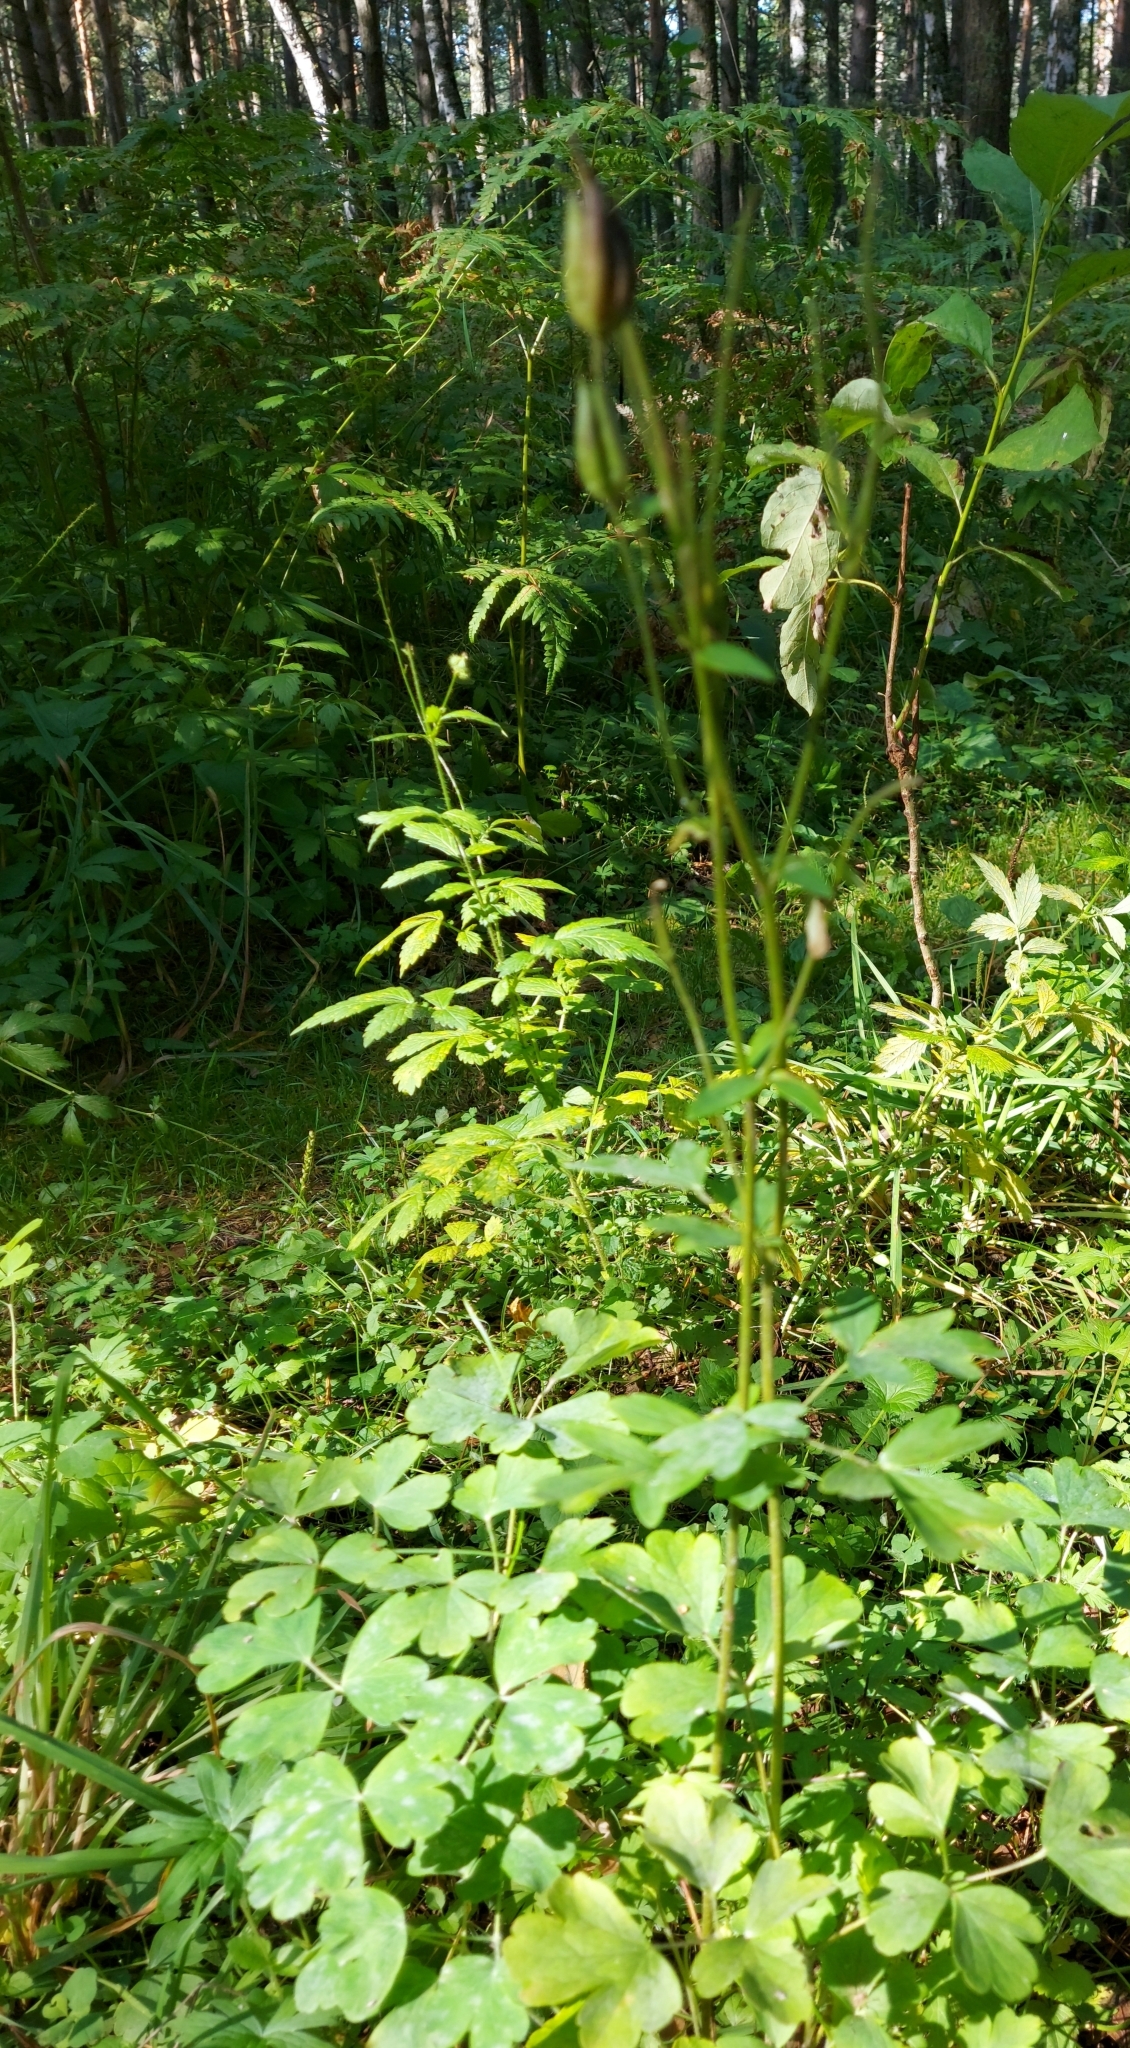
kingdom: Plantae
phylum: Tracheophyta
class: Magnoliopsida
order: Ranunculales
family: Ranunculaceae
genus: Aquilegia
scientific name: Aquilegia vulgaris
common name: Columbine
